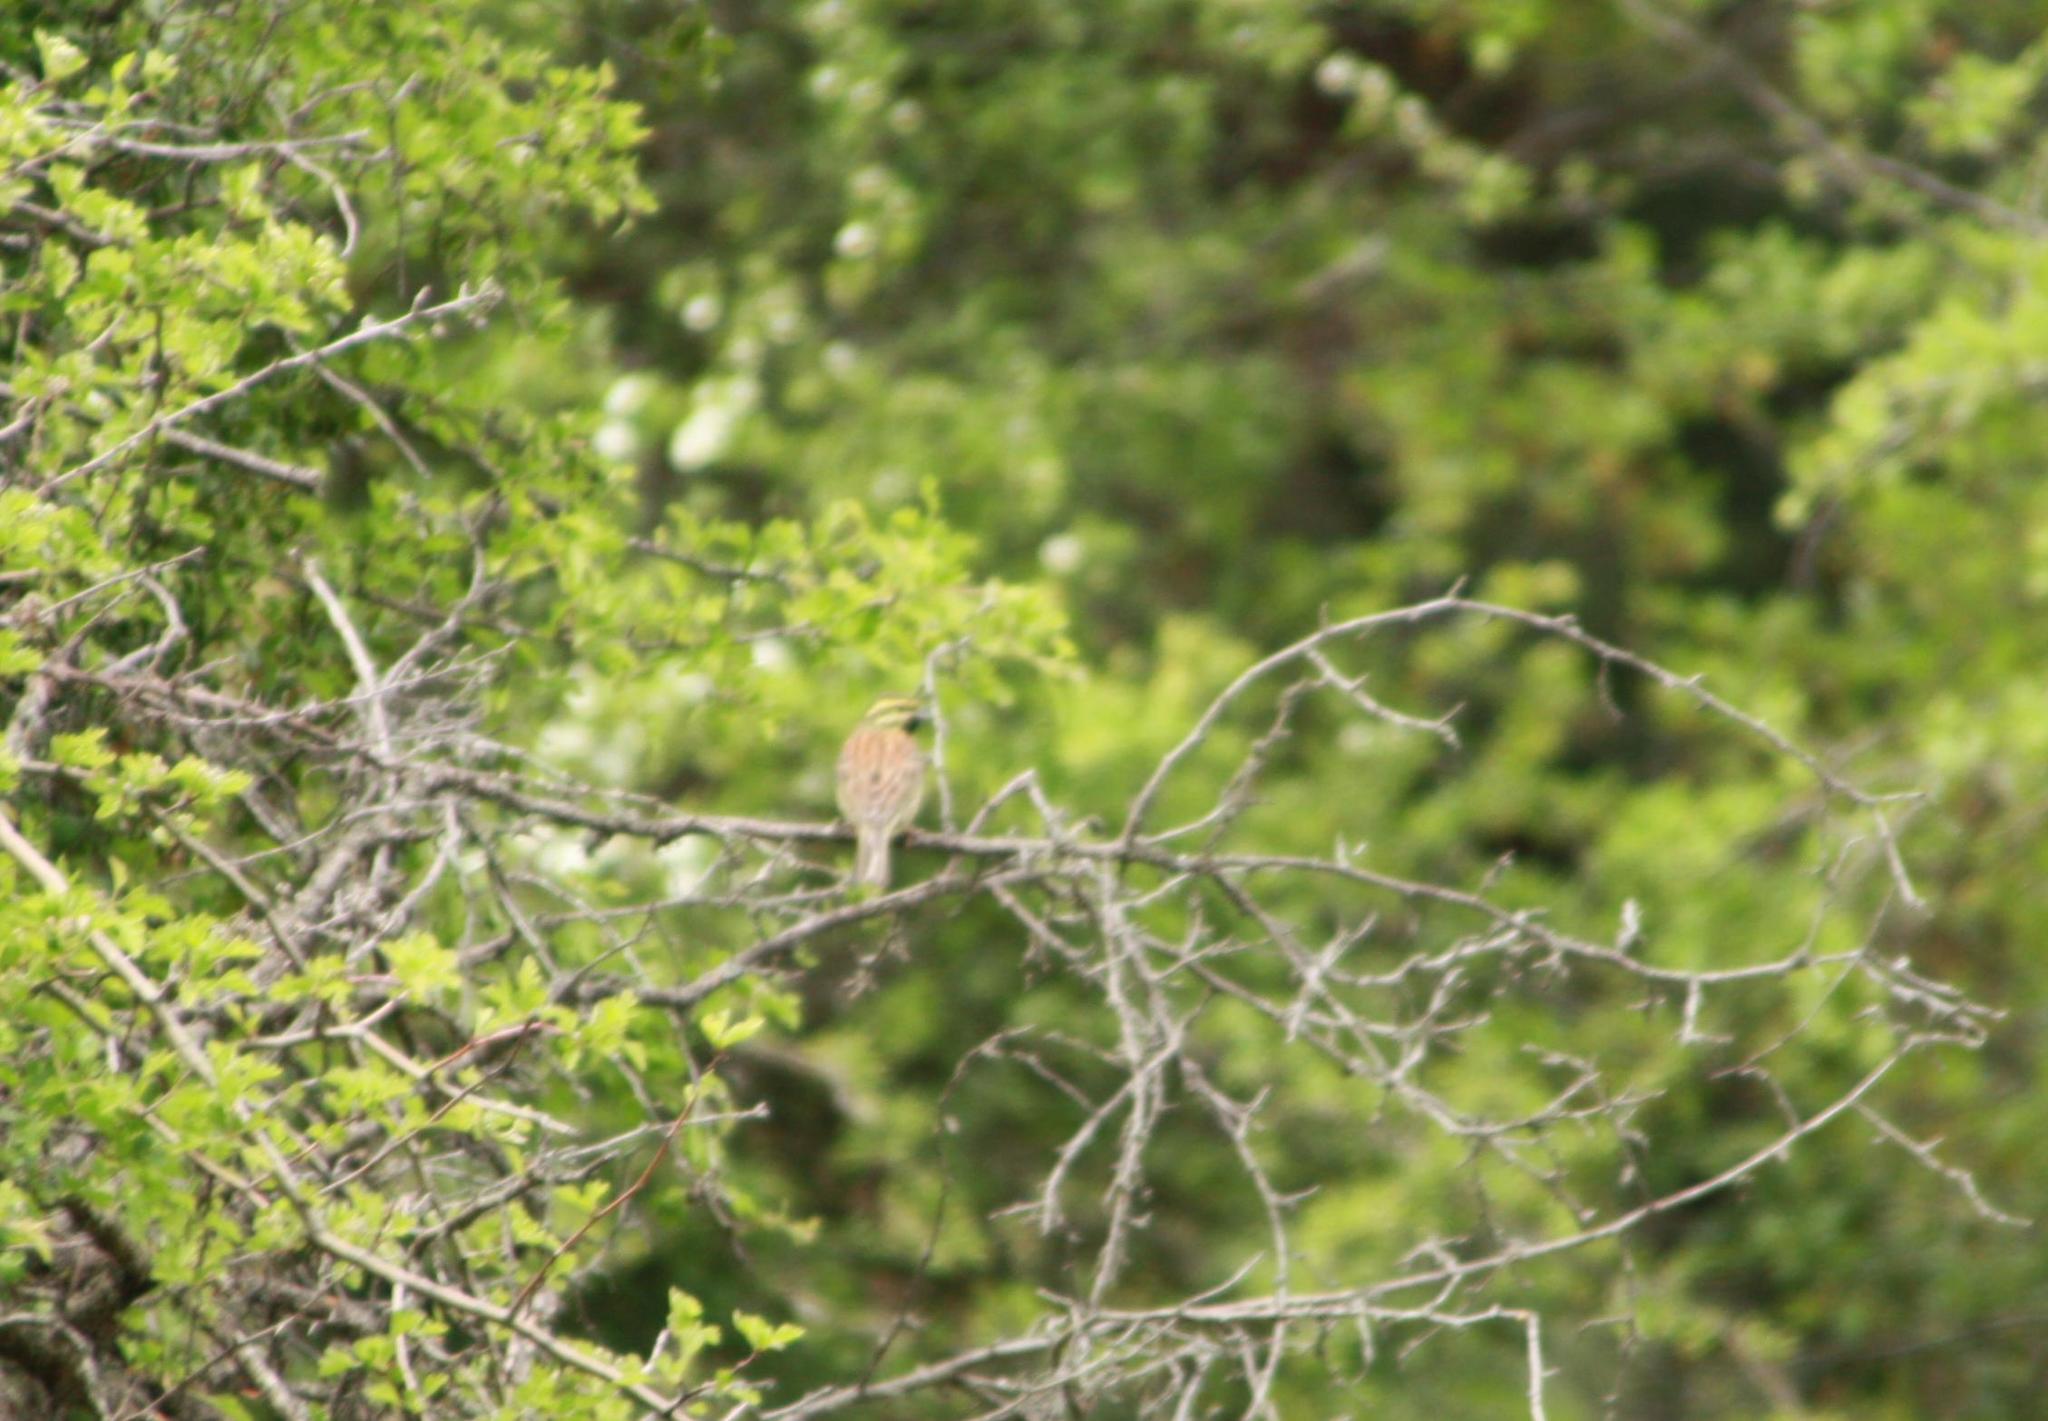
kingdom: Animalia
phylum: Chordata
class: Aves
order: Passeriformes
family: Emberizidae
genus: Emberiza
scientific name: Emberiza cirlus
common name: Cirl bunting
